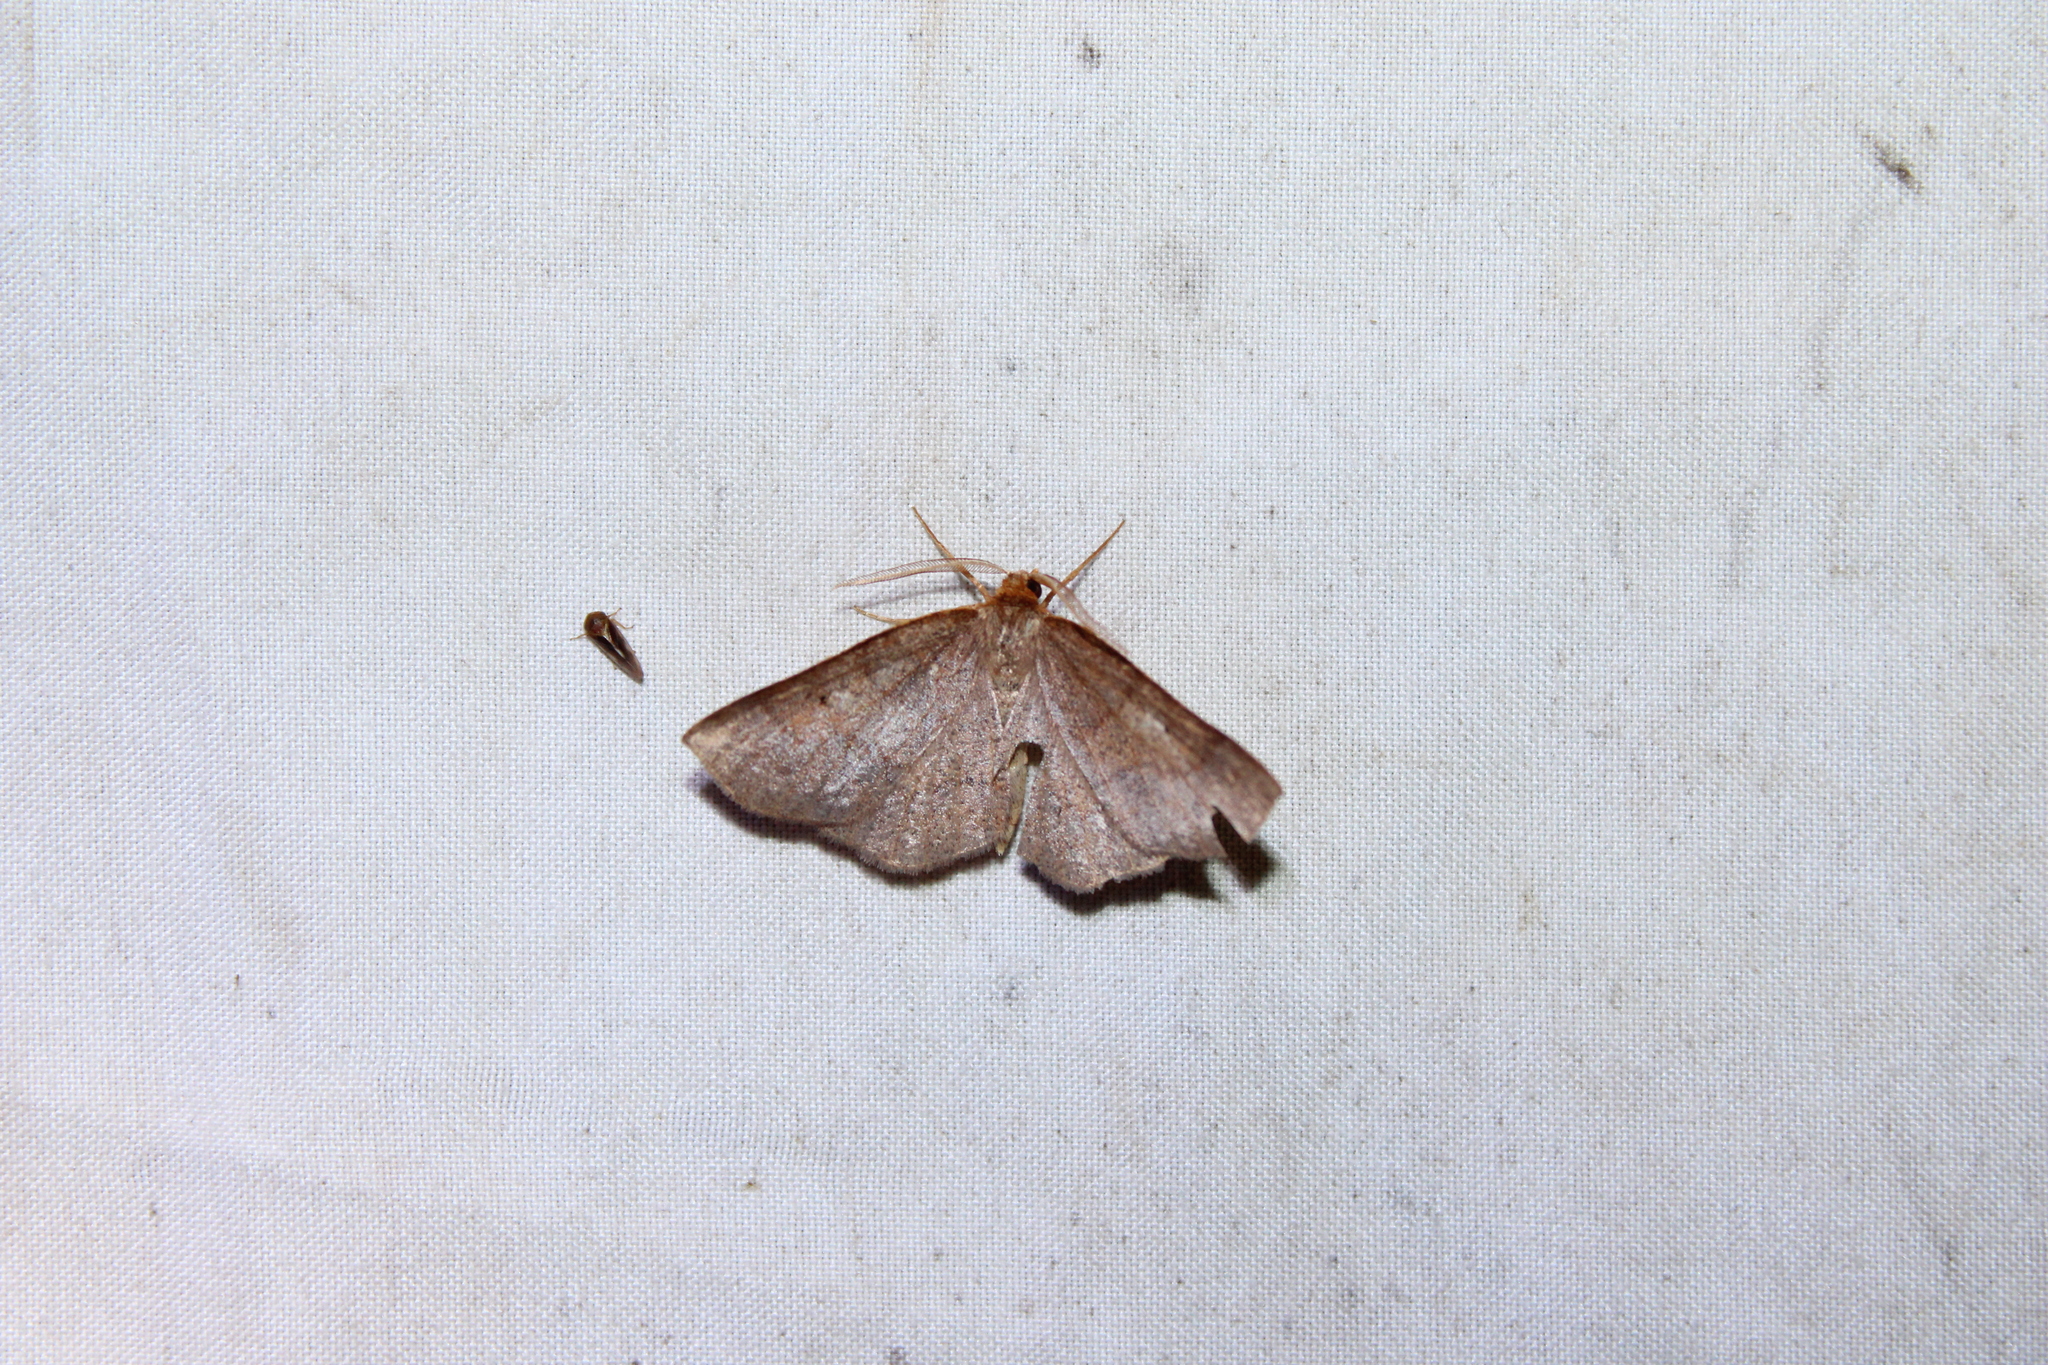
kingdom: Animalia
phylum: Arthropoda
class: Insecta
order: Lepidoptera
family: Geometridae
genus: Metarranthis
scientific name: Metarranthis amyrisaria
